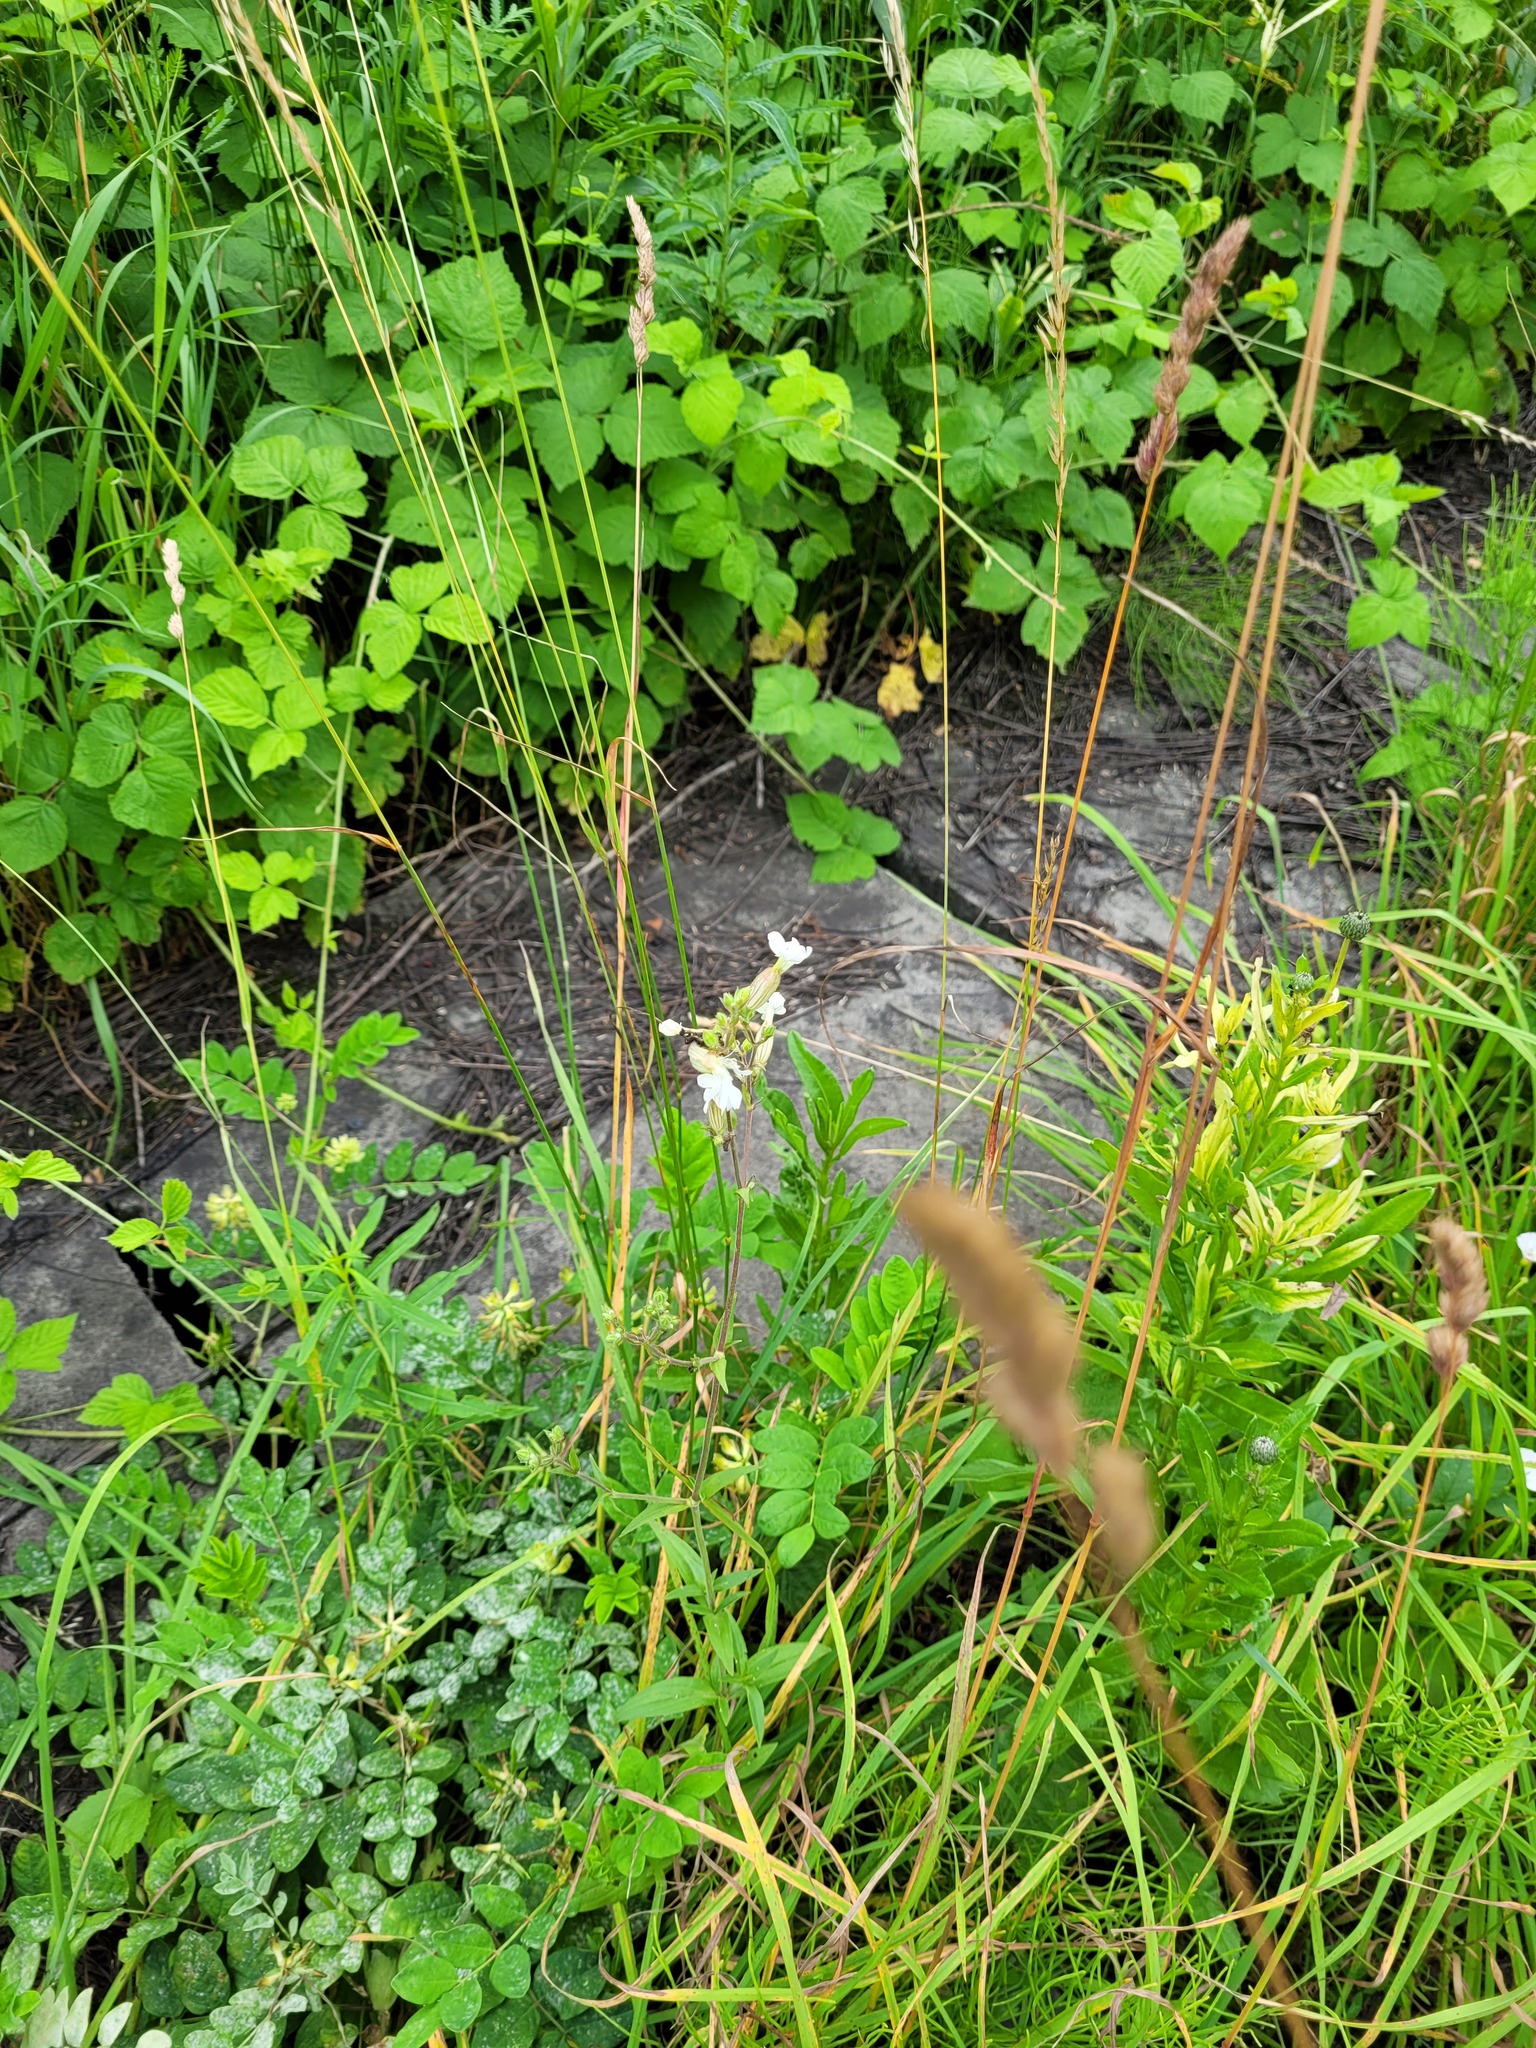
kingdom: Plantae
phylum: Tracheophyta
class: Magnoliopsida
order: Caryophyllales
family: Caryophyllaceae
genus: Silene
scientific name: Silene latifolia
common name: White campion
